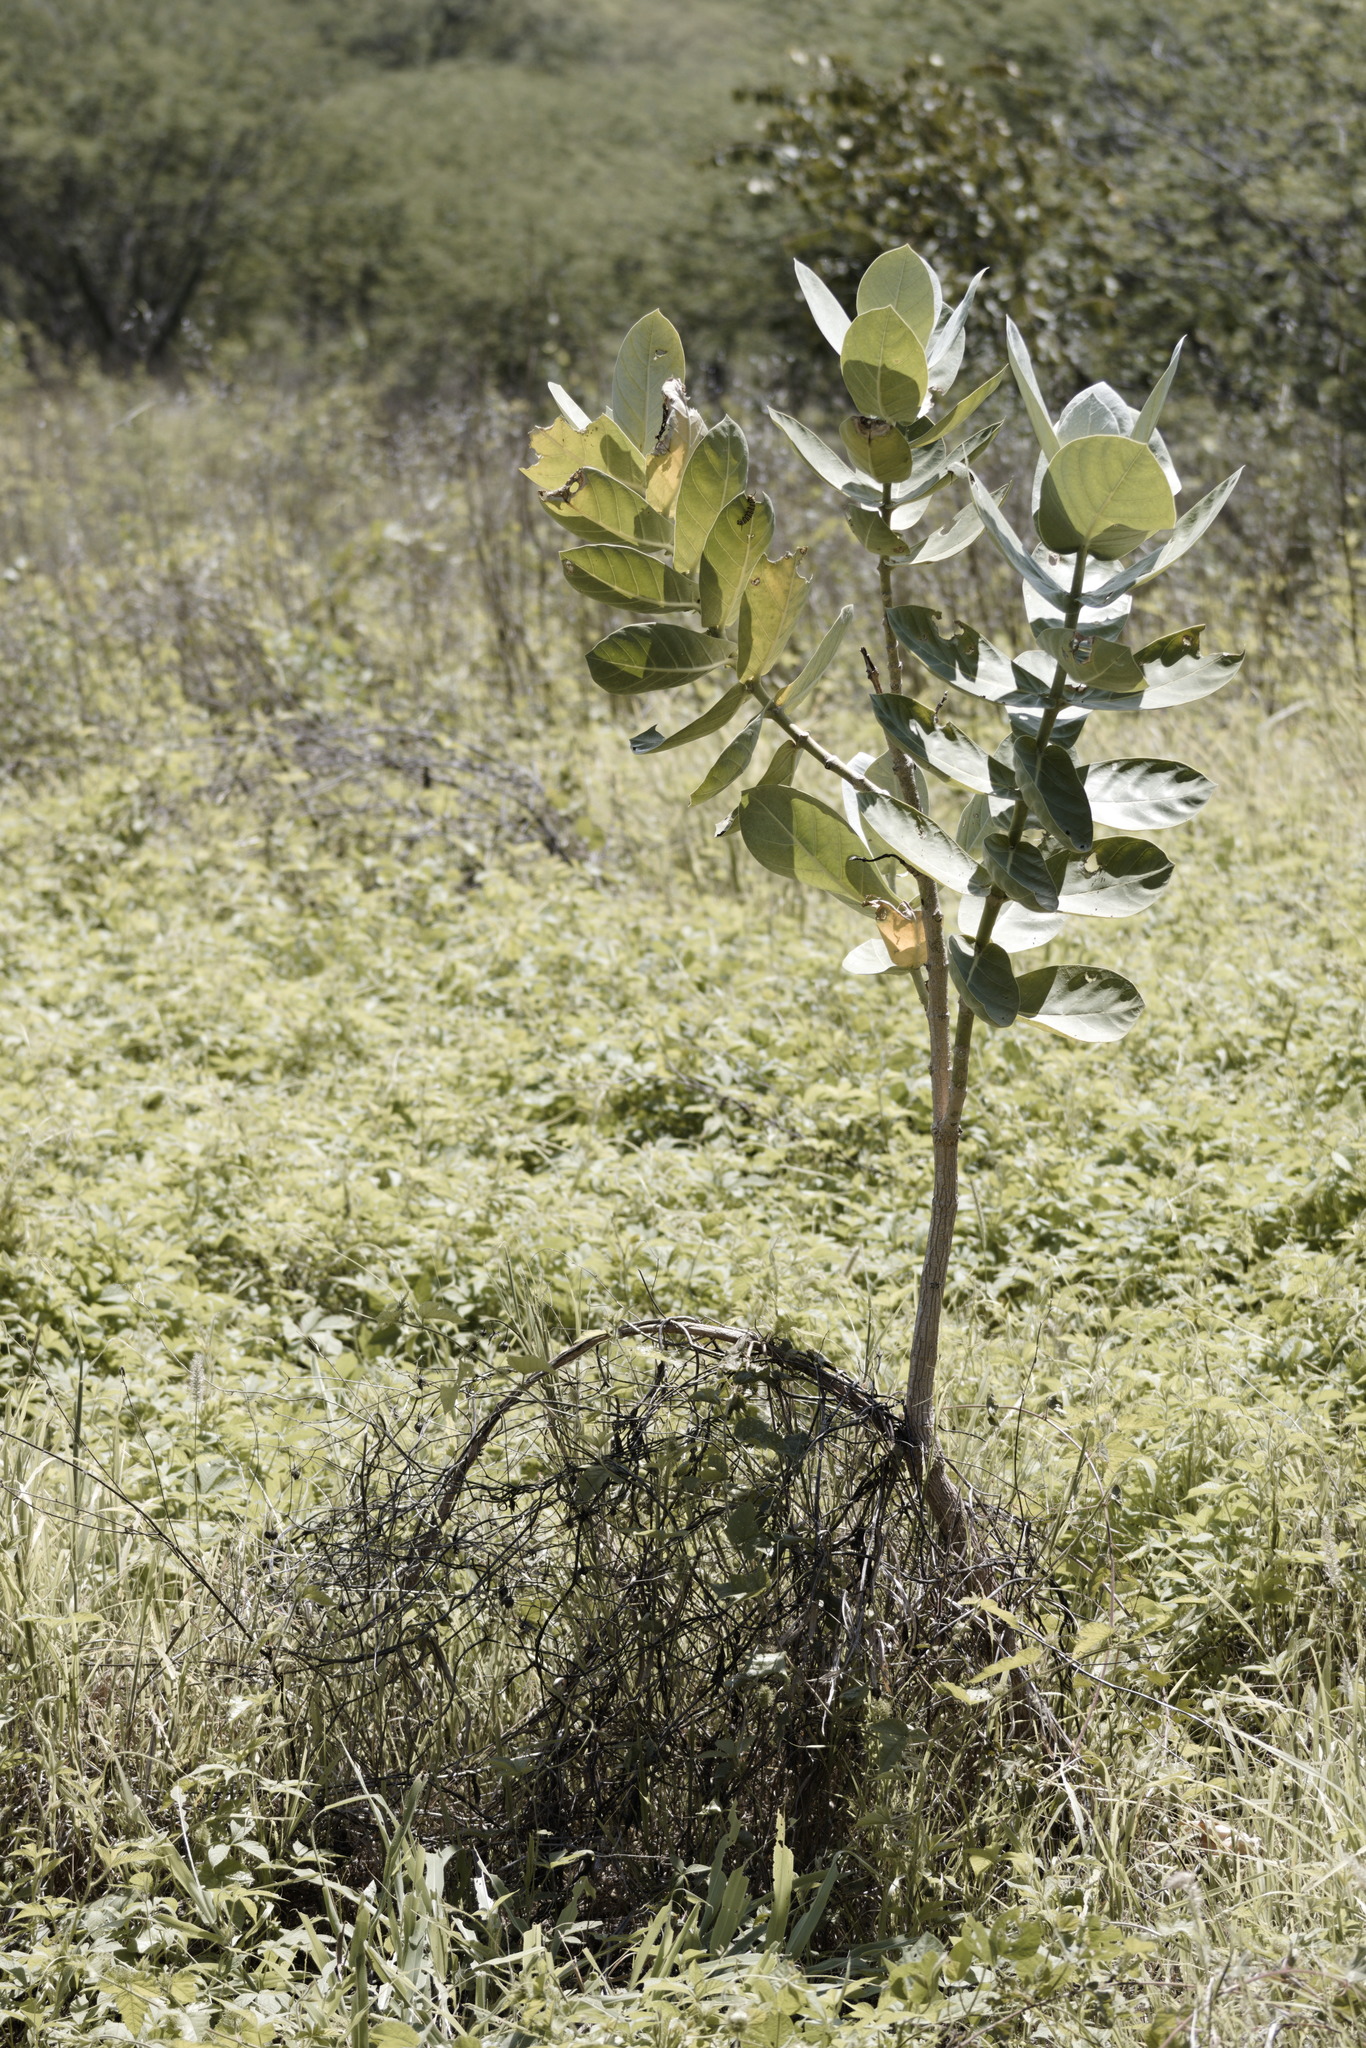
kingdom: Plantae
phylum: Tracheophyta
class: Magnoliopsida
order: Gentianales
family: Apocynaceae
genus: Calotropis
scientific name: Calotropis procera
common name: Roostertree
